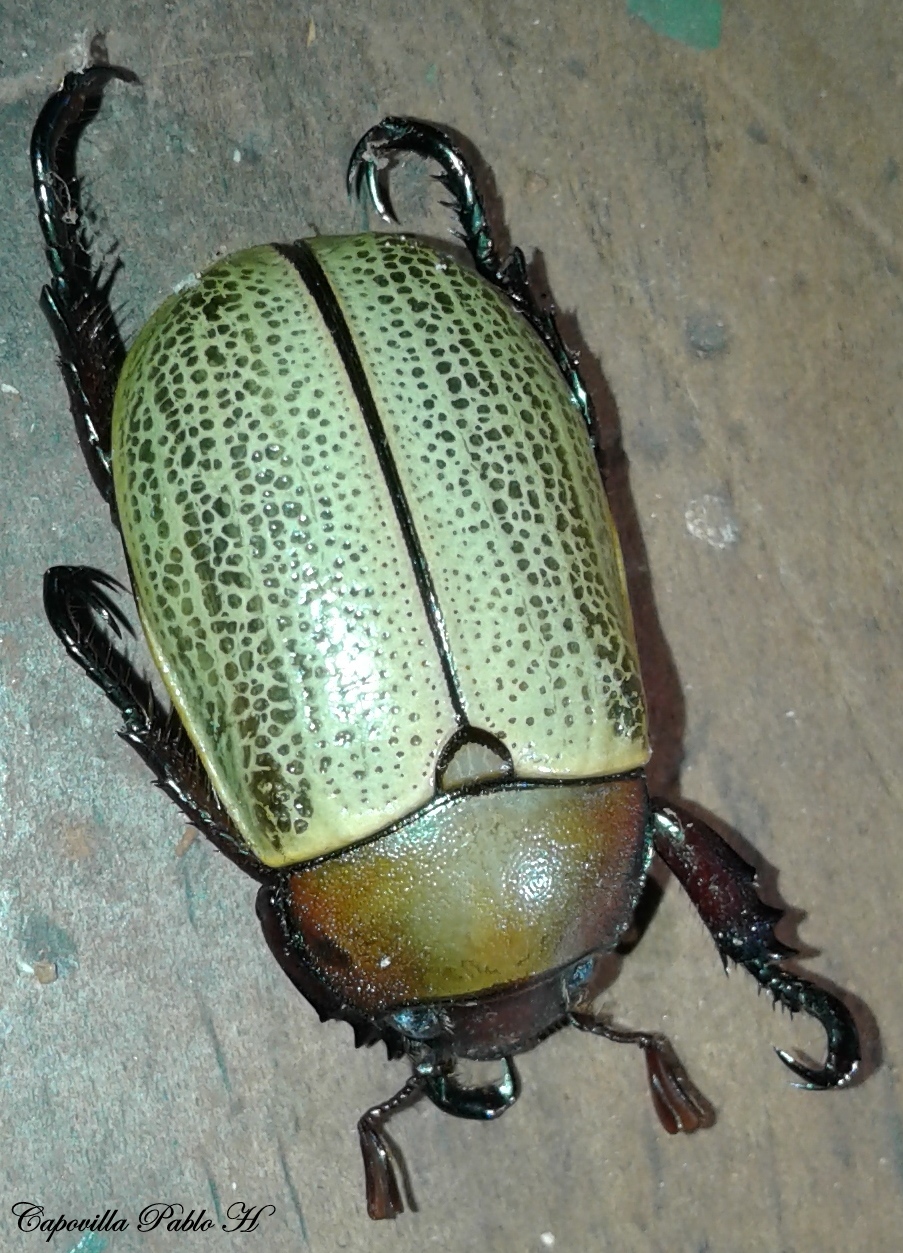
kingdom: Animalia
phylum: Arthropoda
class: Insecta
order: Coleoptera
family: Scarabaeidae
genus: Pelidnota
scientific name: Pelidnota sordida
